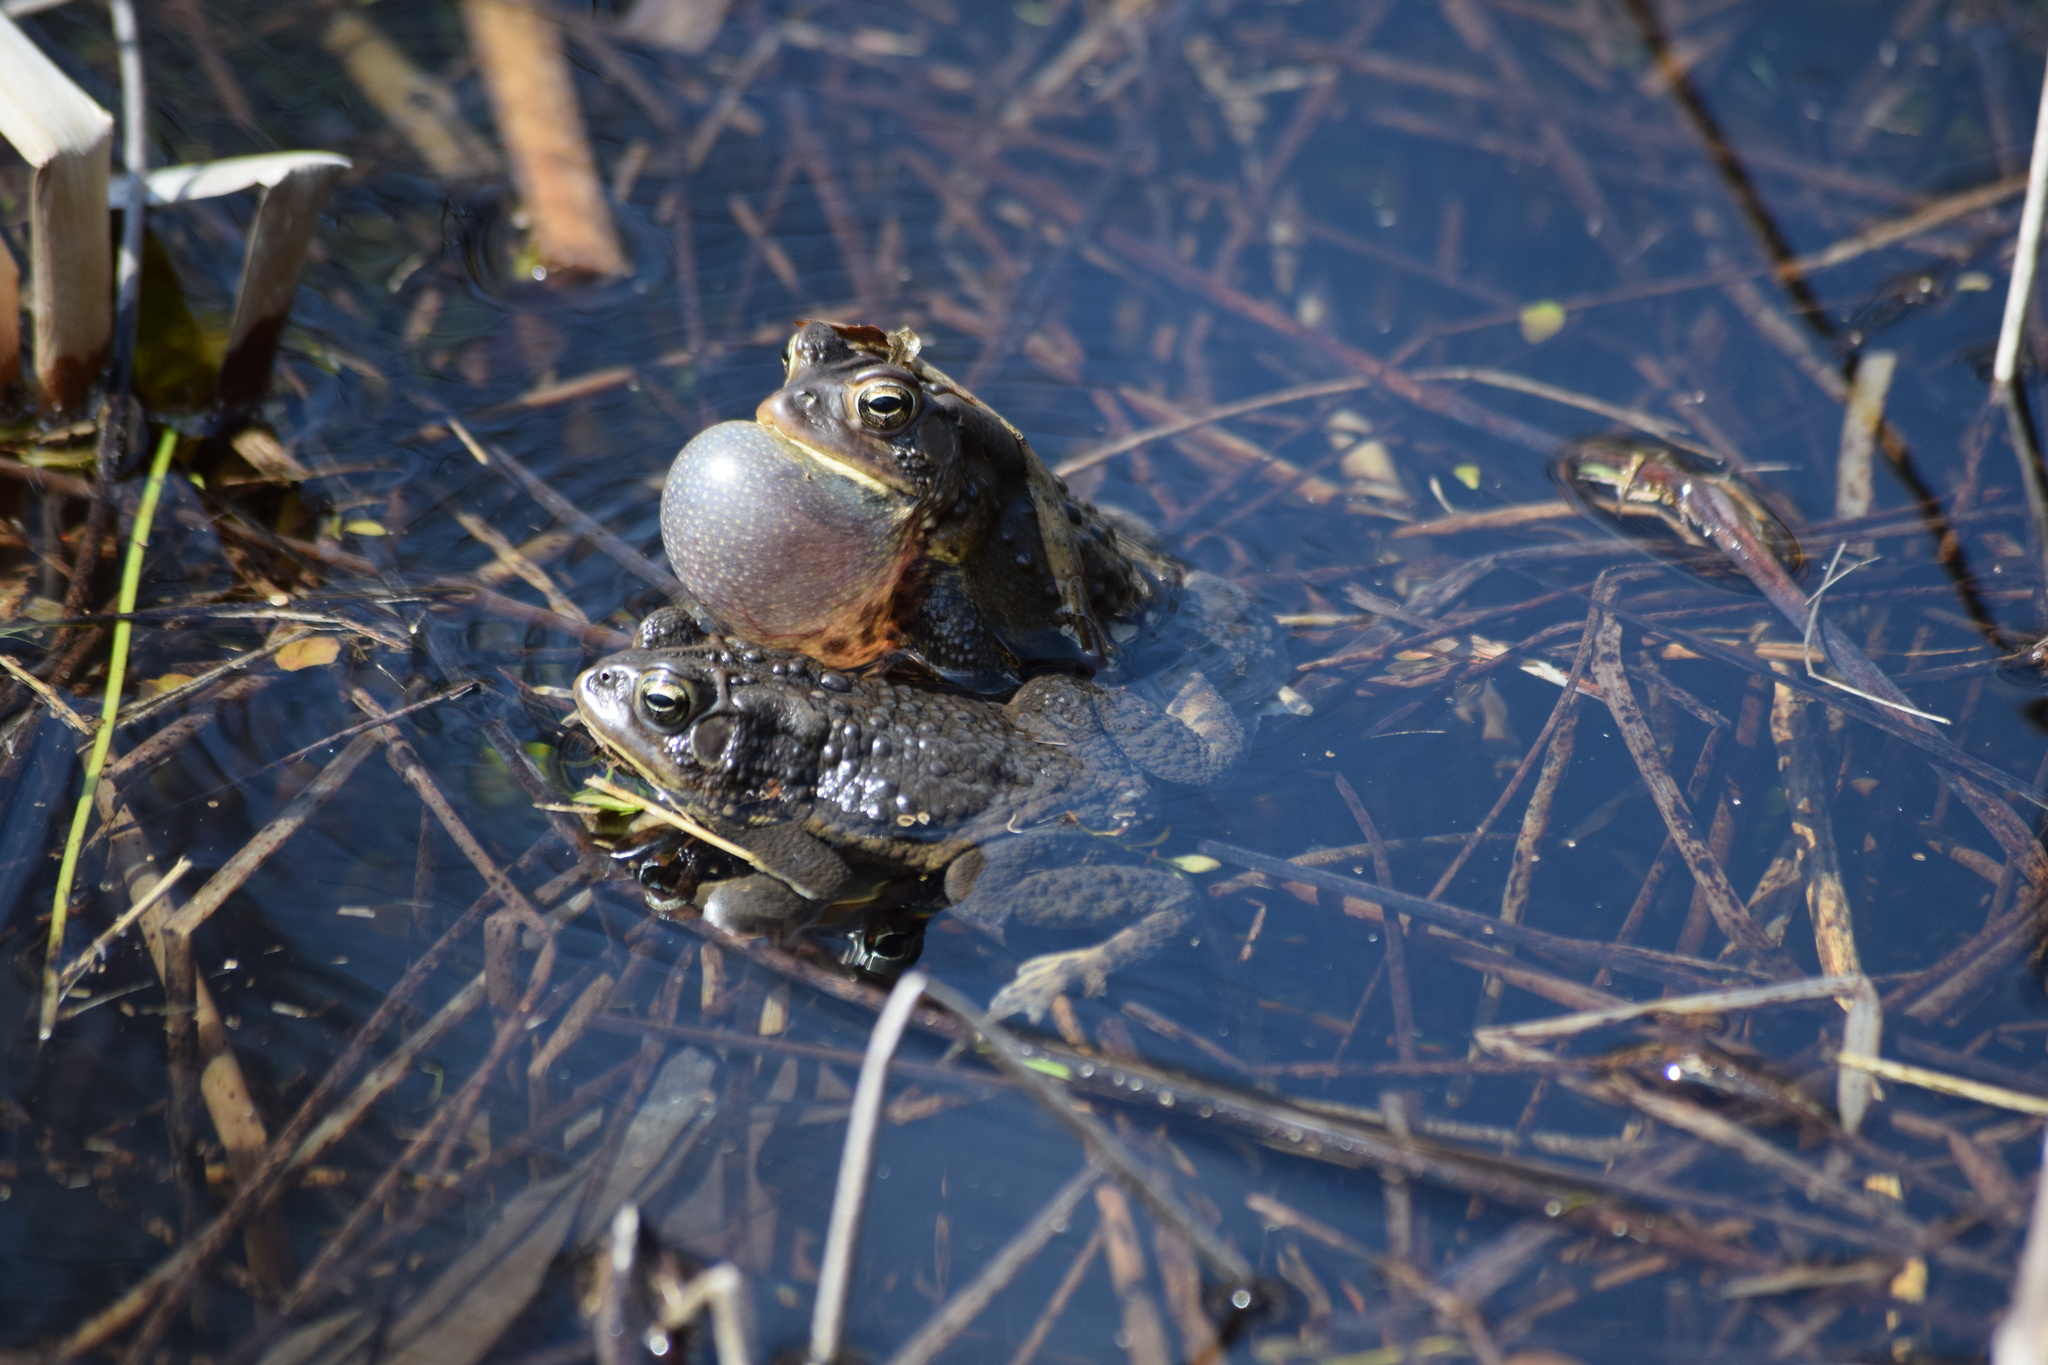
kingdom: Animalia
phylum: Chordata
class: Amphibia
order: Anura
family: Bufonidae
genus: Anaxyrus
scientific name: Anaxyrus americanus
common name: American toad
